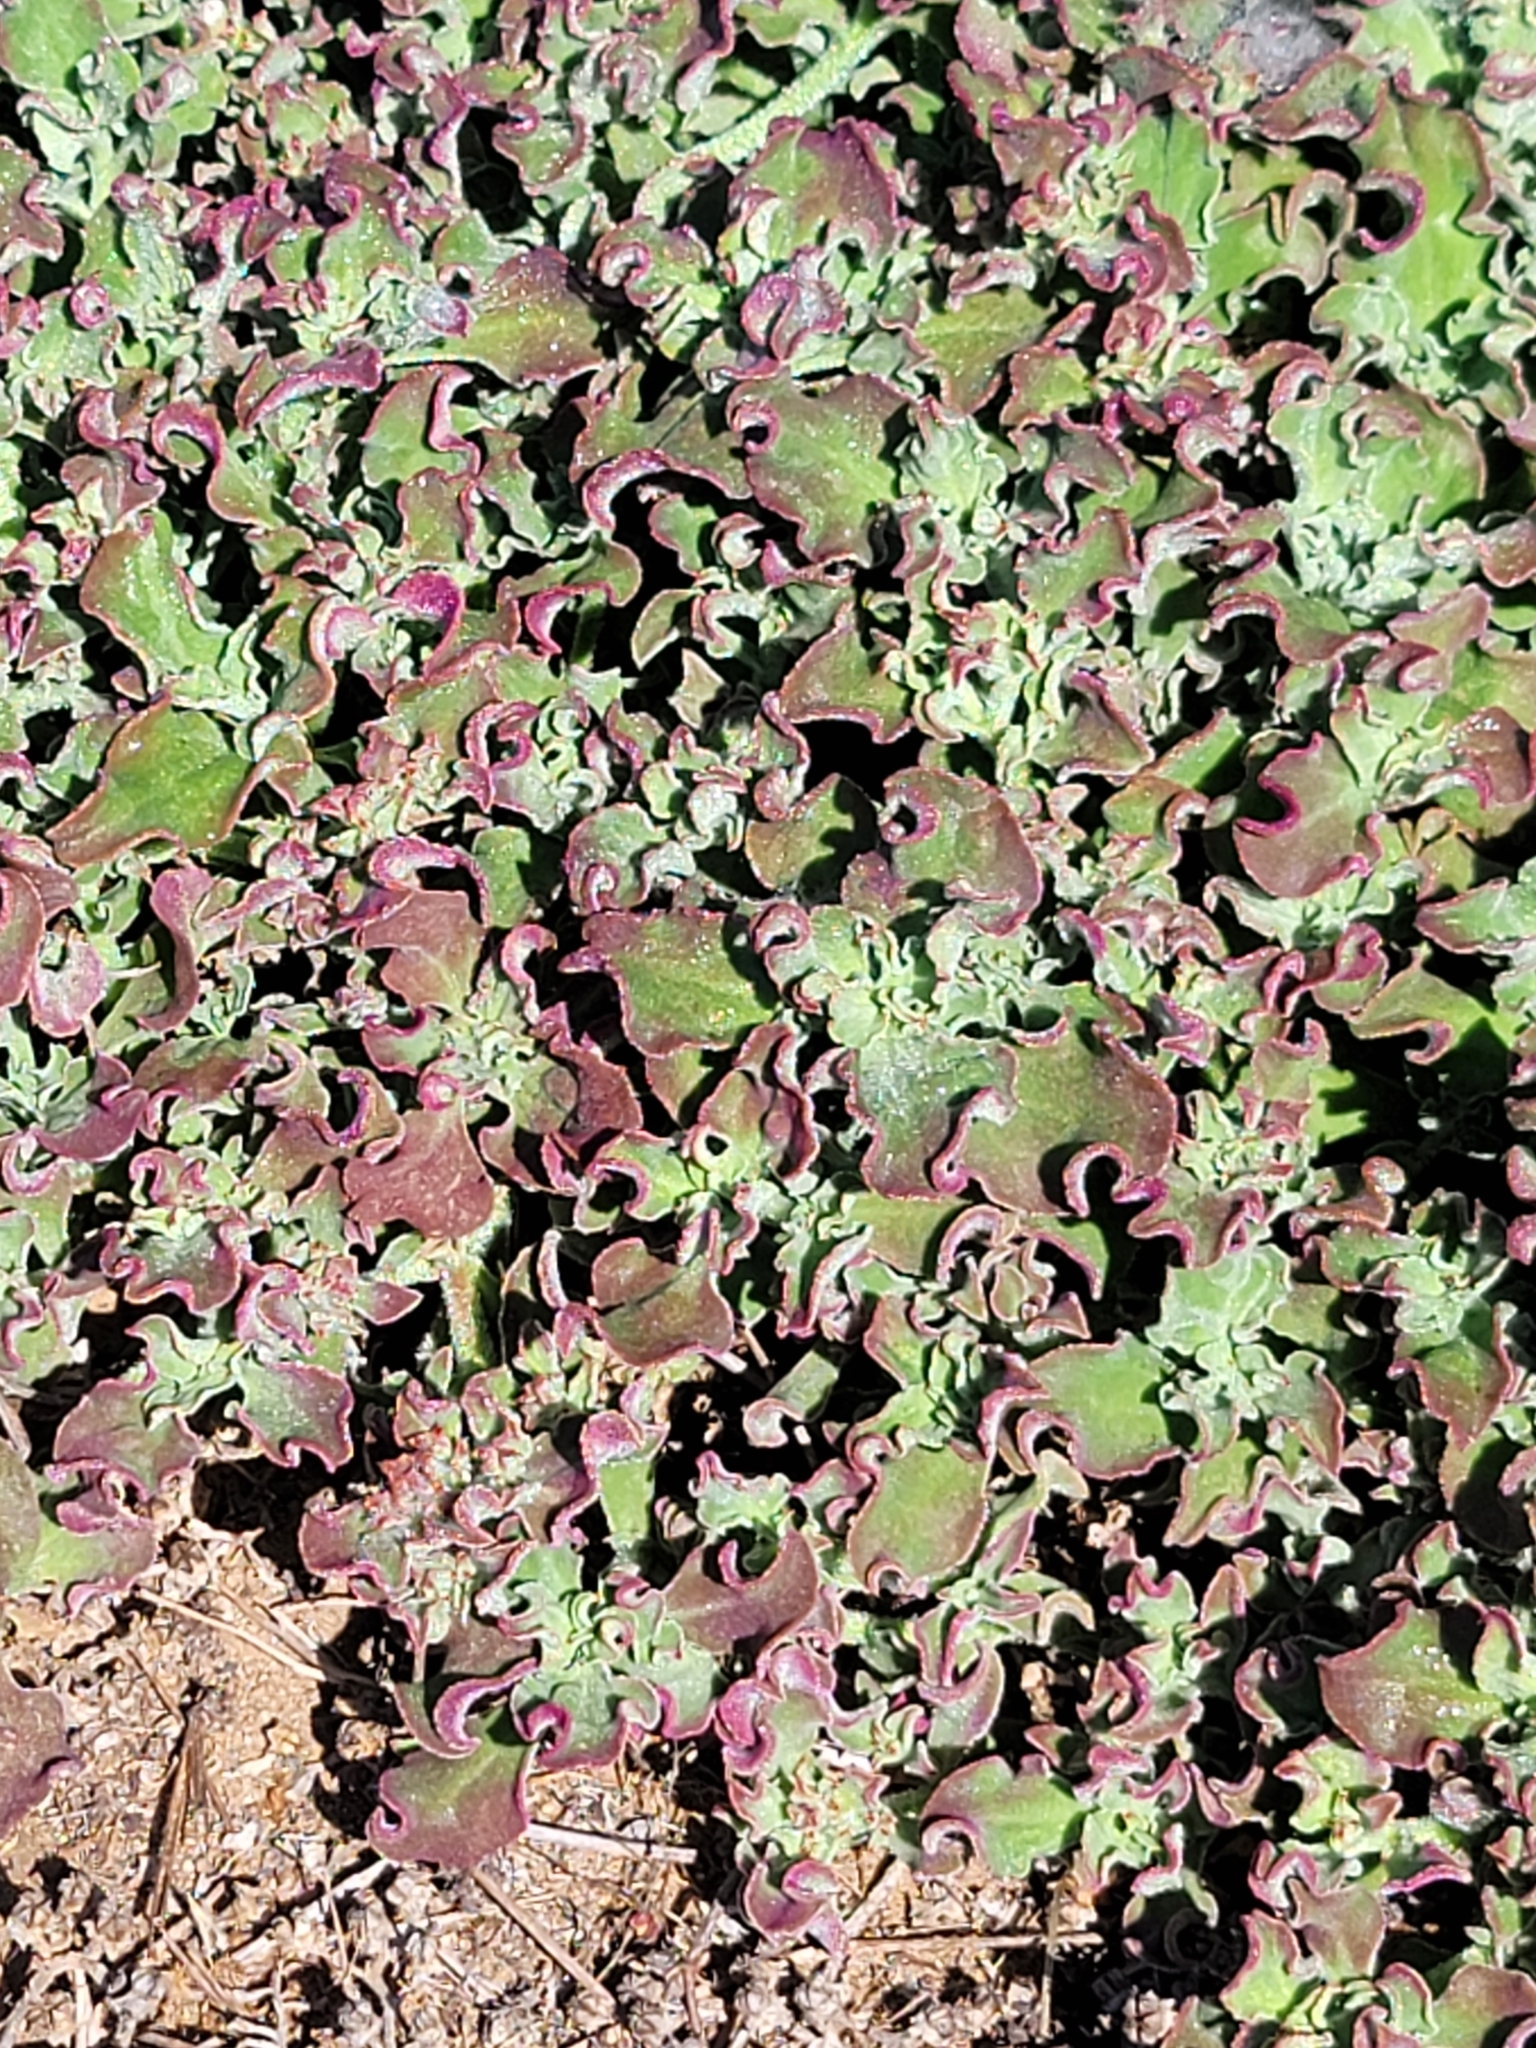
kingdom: Plantae
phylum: Tracheophyta
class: Magnoliopsida
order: Caryophyllales
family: Aizoaceae
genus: Mesembryanthemum
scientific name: Mesembryanthemum crystallinum
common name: Common iceplant
